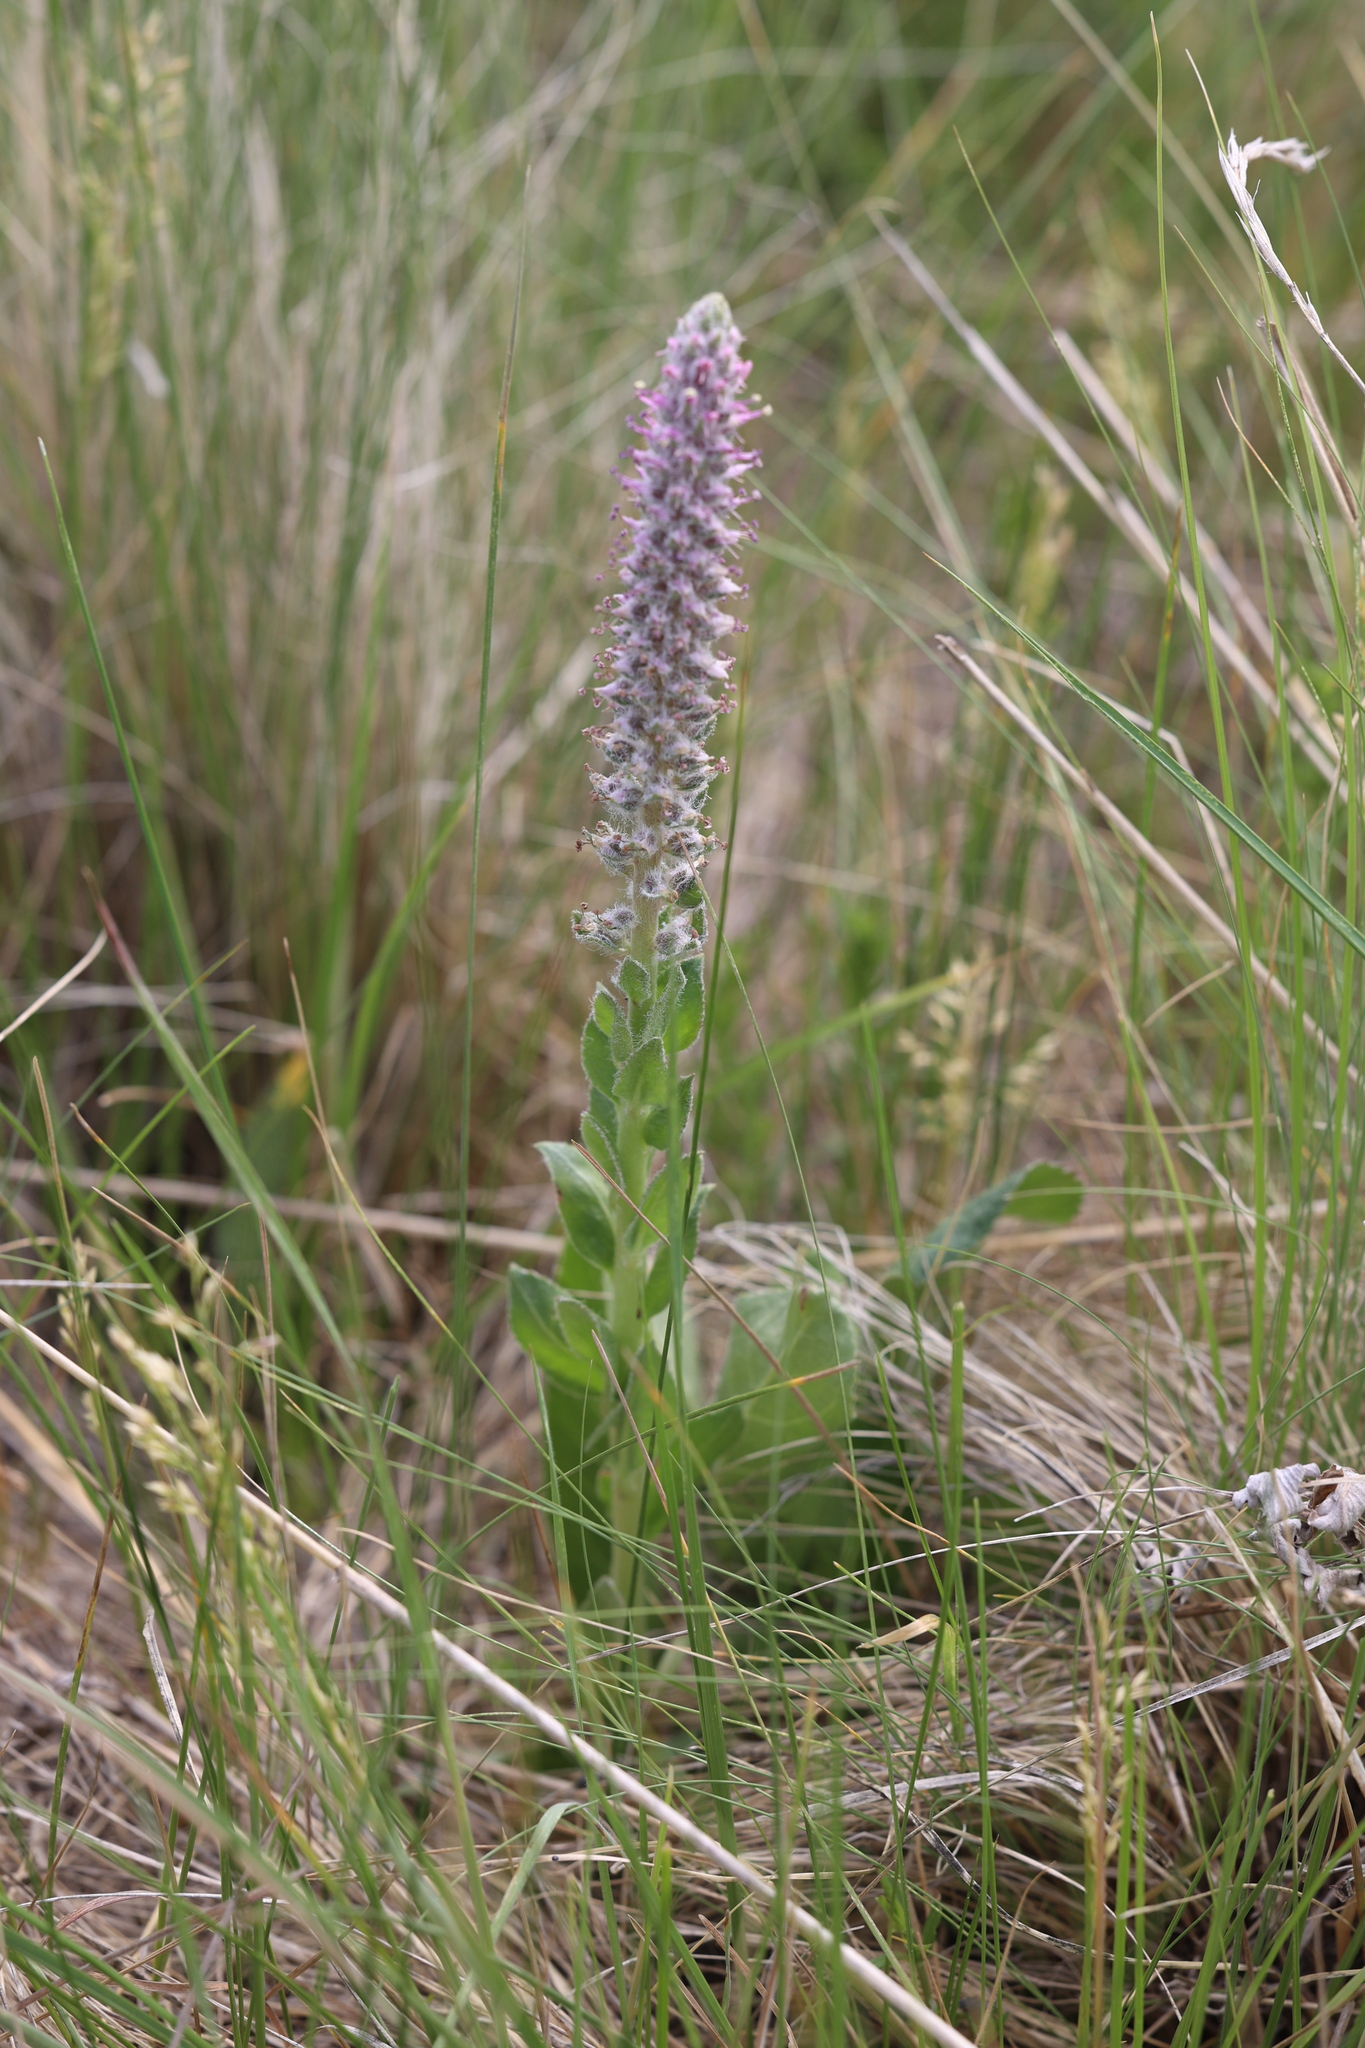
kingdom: Plantae
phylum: Tracheophyta
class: Magnoliopsida
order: Lamiales
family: Plantaginaceae
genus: Veronica
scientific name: Veronica plantaginea
